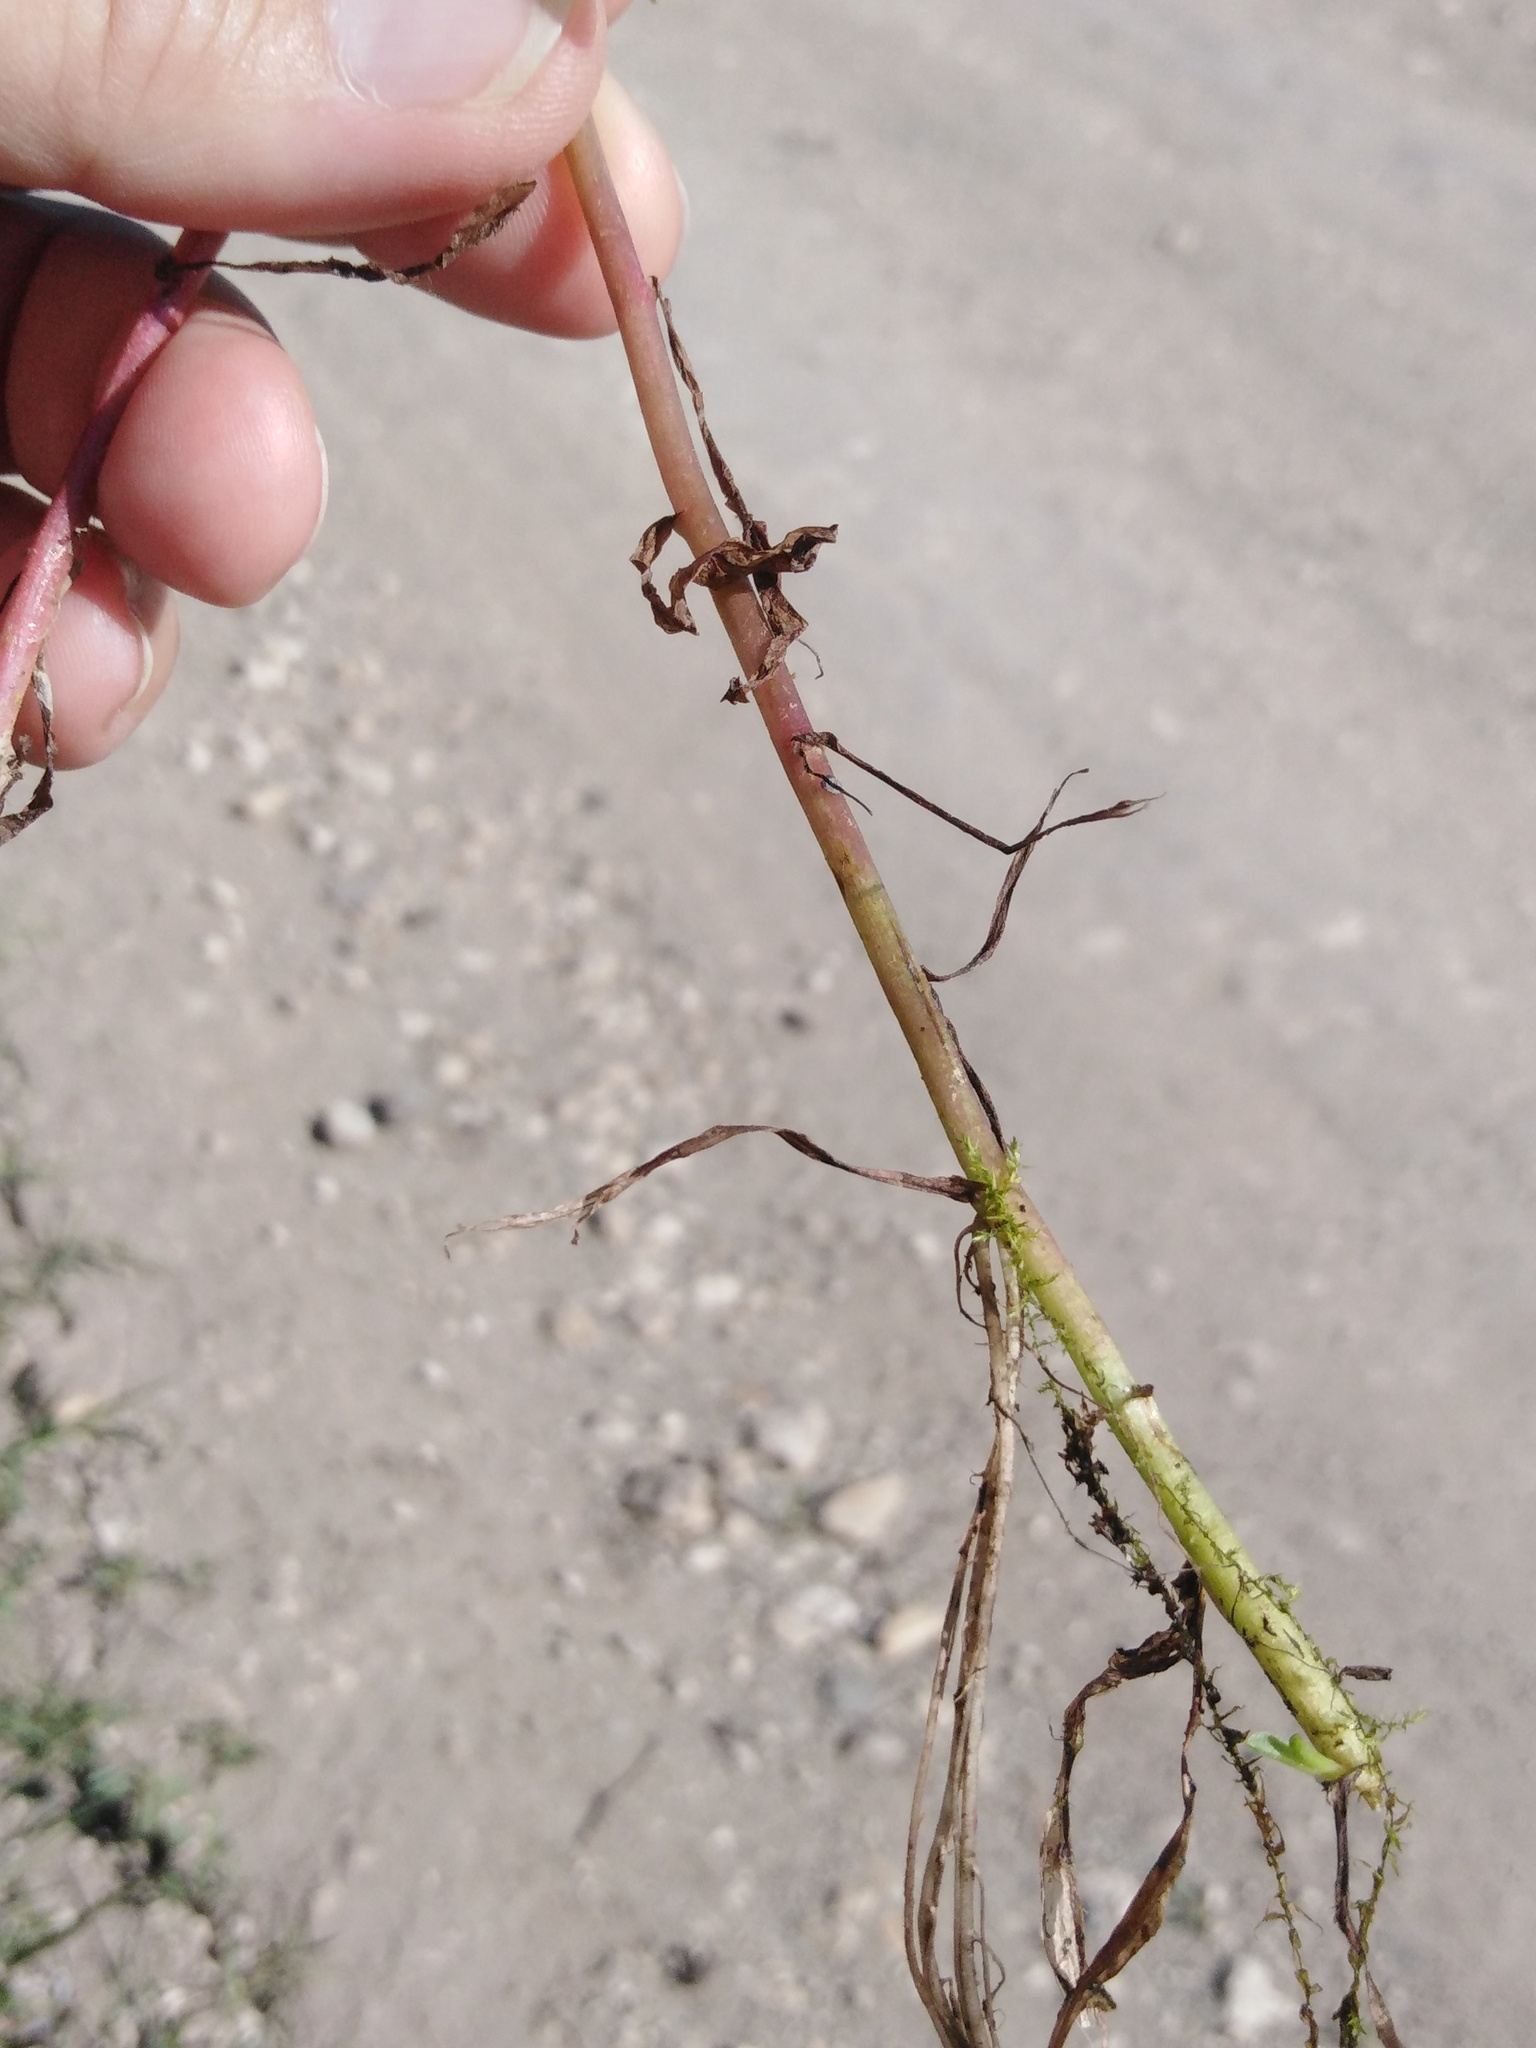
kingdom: Plantae
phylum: Tracheophyta
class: Magnoliopsida
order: Boraginales
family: Boraginaceae
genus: Myosotis
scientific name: Myosotis scorpioides
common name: Water forget-me-not
